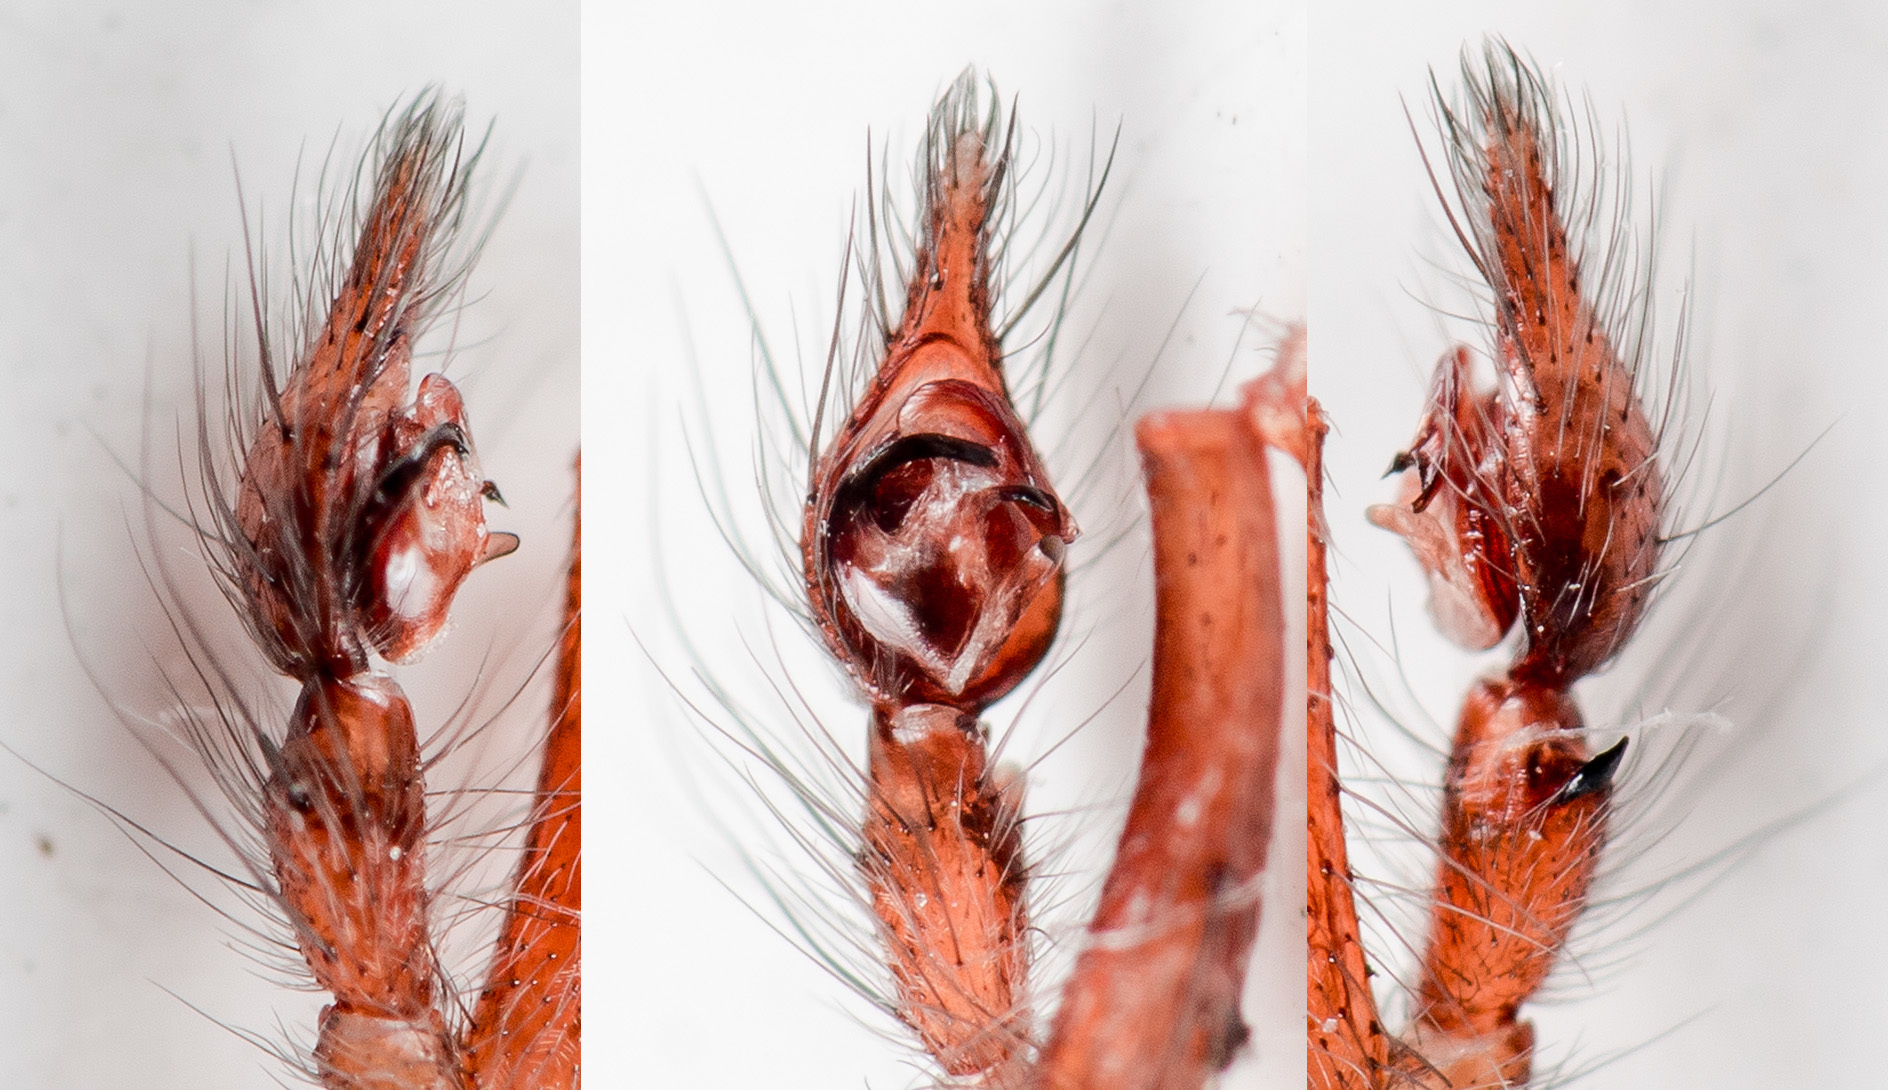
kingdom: Animalia
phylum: Arthropoda
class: Arachnida
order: Araneae
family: Agelenidae
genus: Tegenaria
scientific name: Tegenaria domestica
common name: Barn funnel weaver
